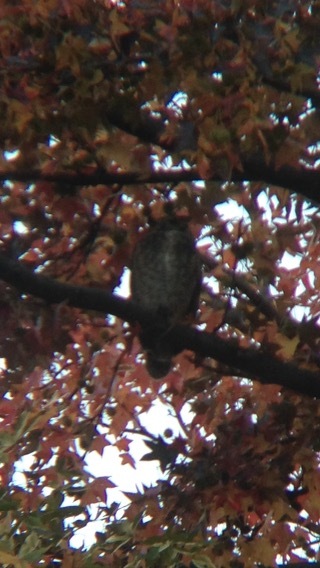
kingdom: Animalia
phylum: Chordata
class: Aves
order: Strigiformes
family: Strigidae
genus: Bubo
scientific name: Bubo virginianus
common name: Great horned owl
